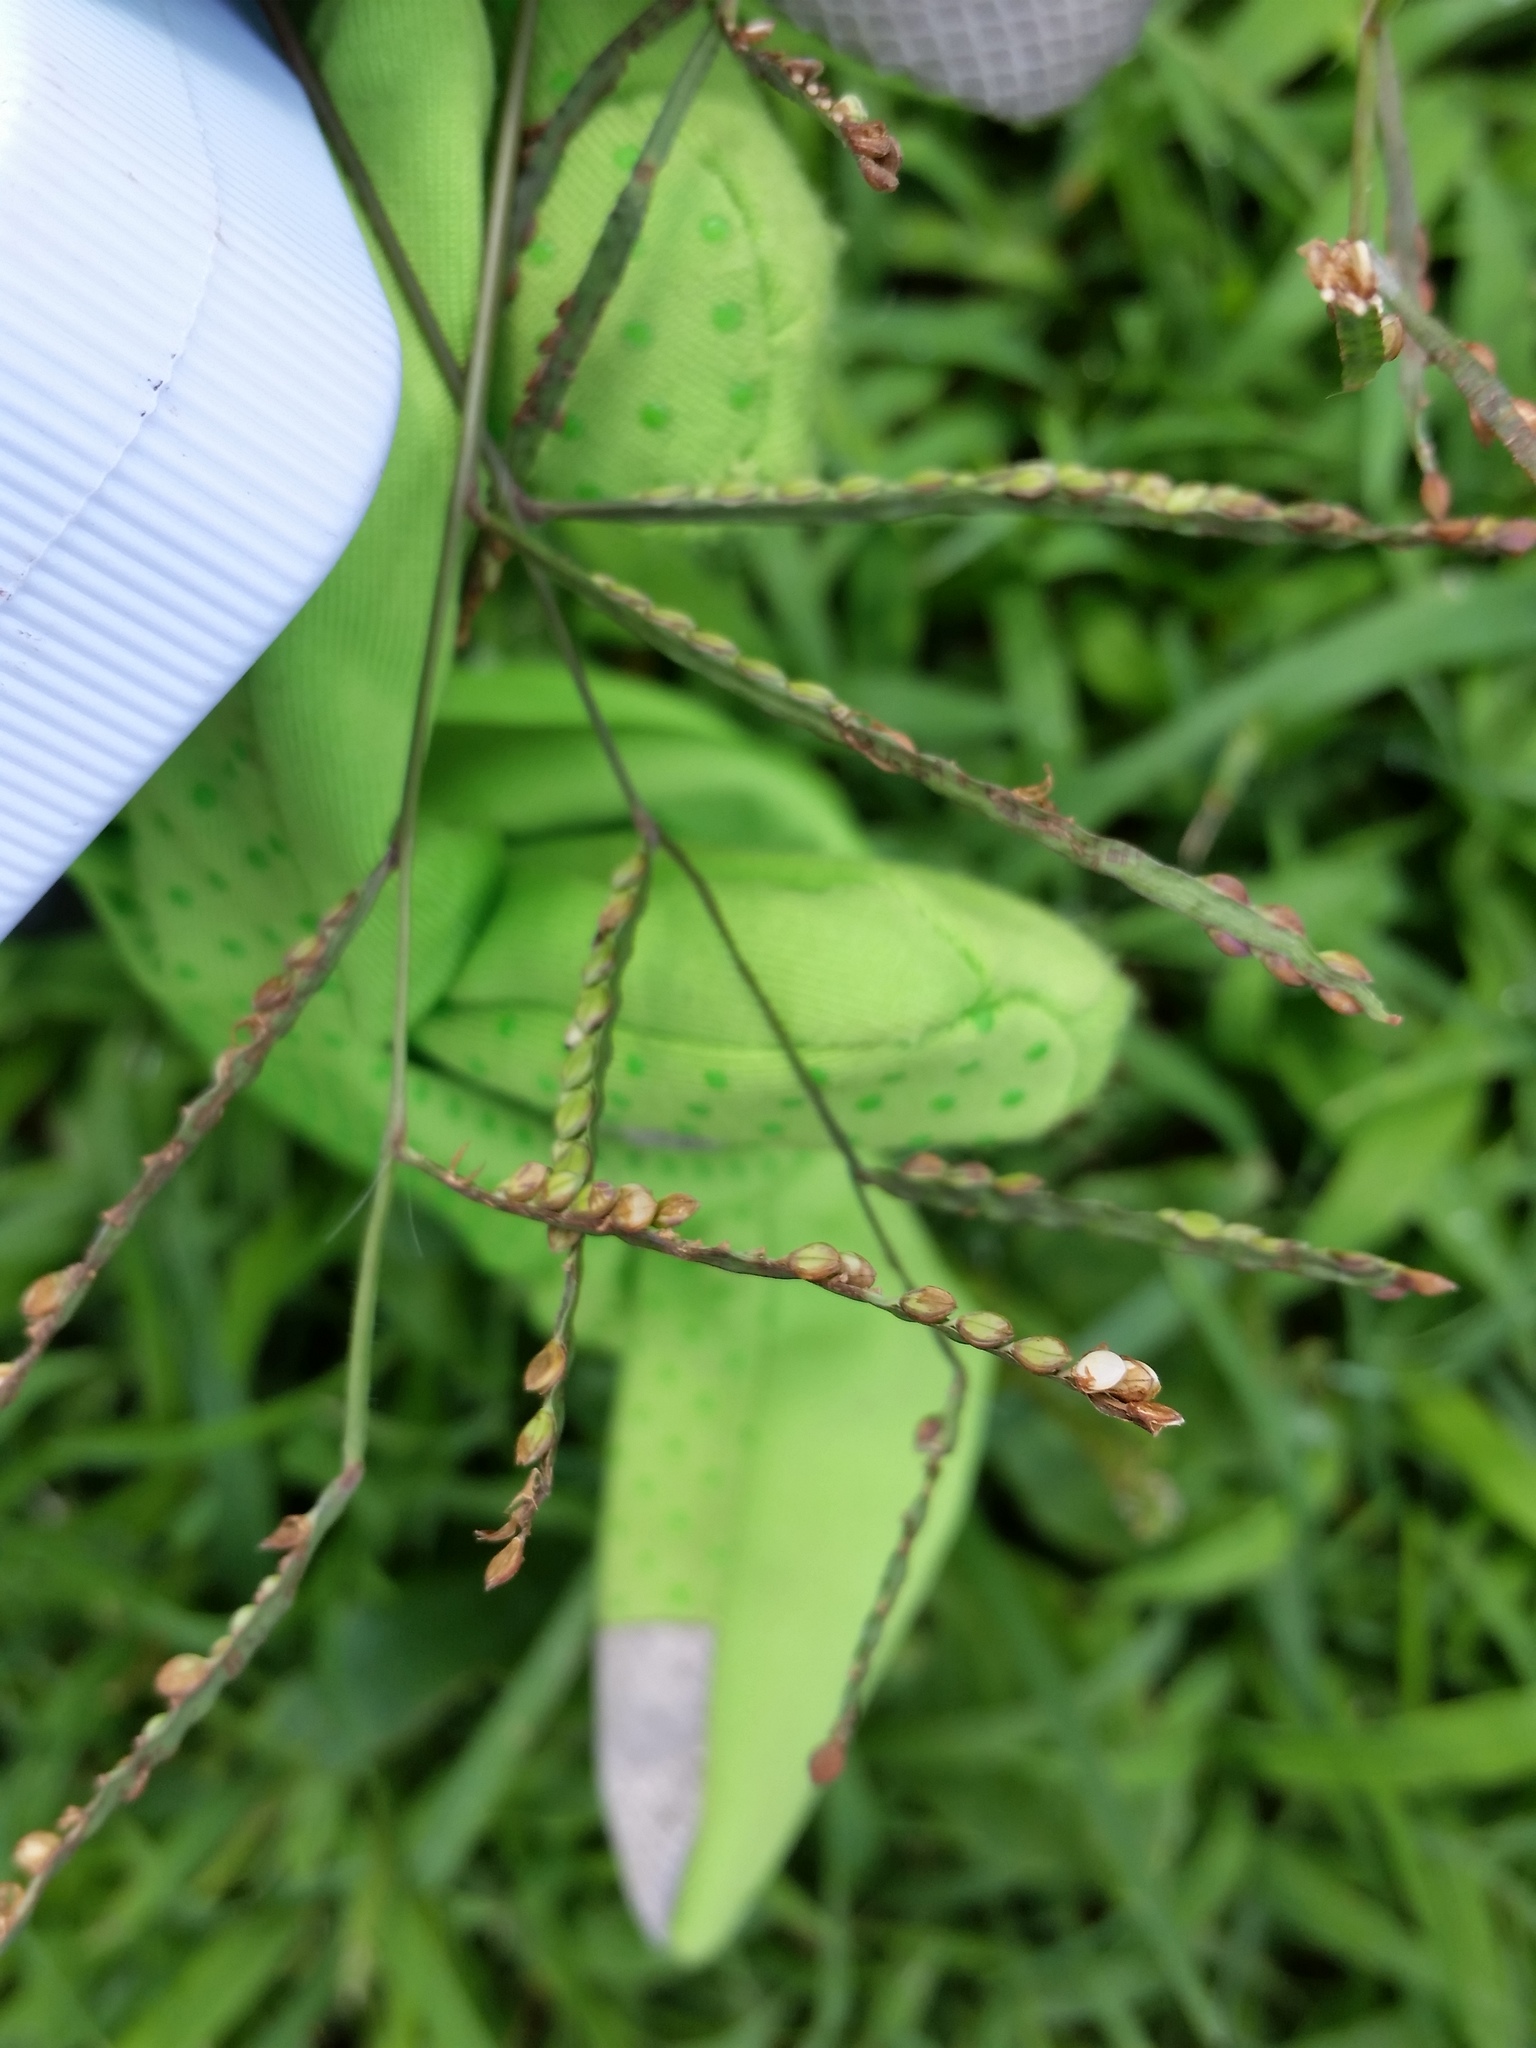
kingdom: Plantae
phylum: Tracheophyta
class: Liliopsida
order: Poales
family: Poaceae
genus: Paspalum
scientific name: Paspalum laeve
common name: Field paspalum
